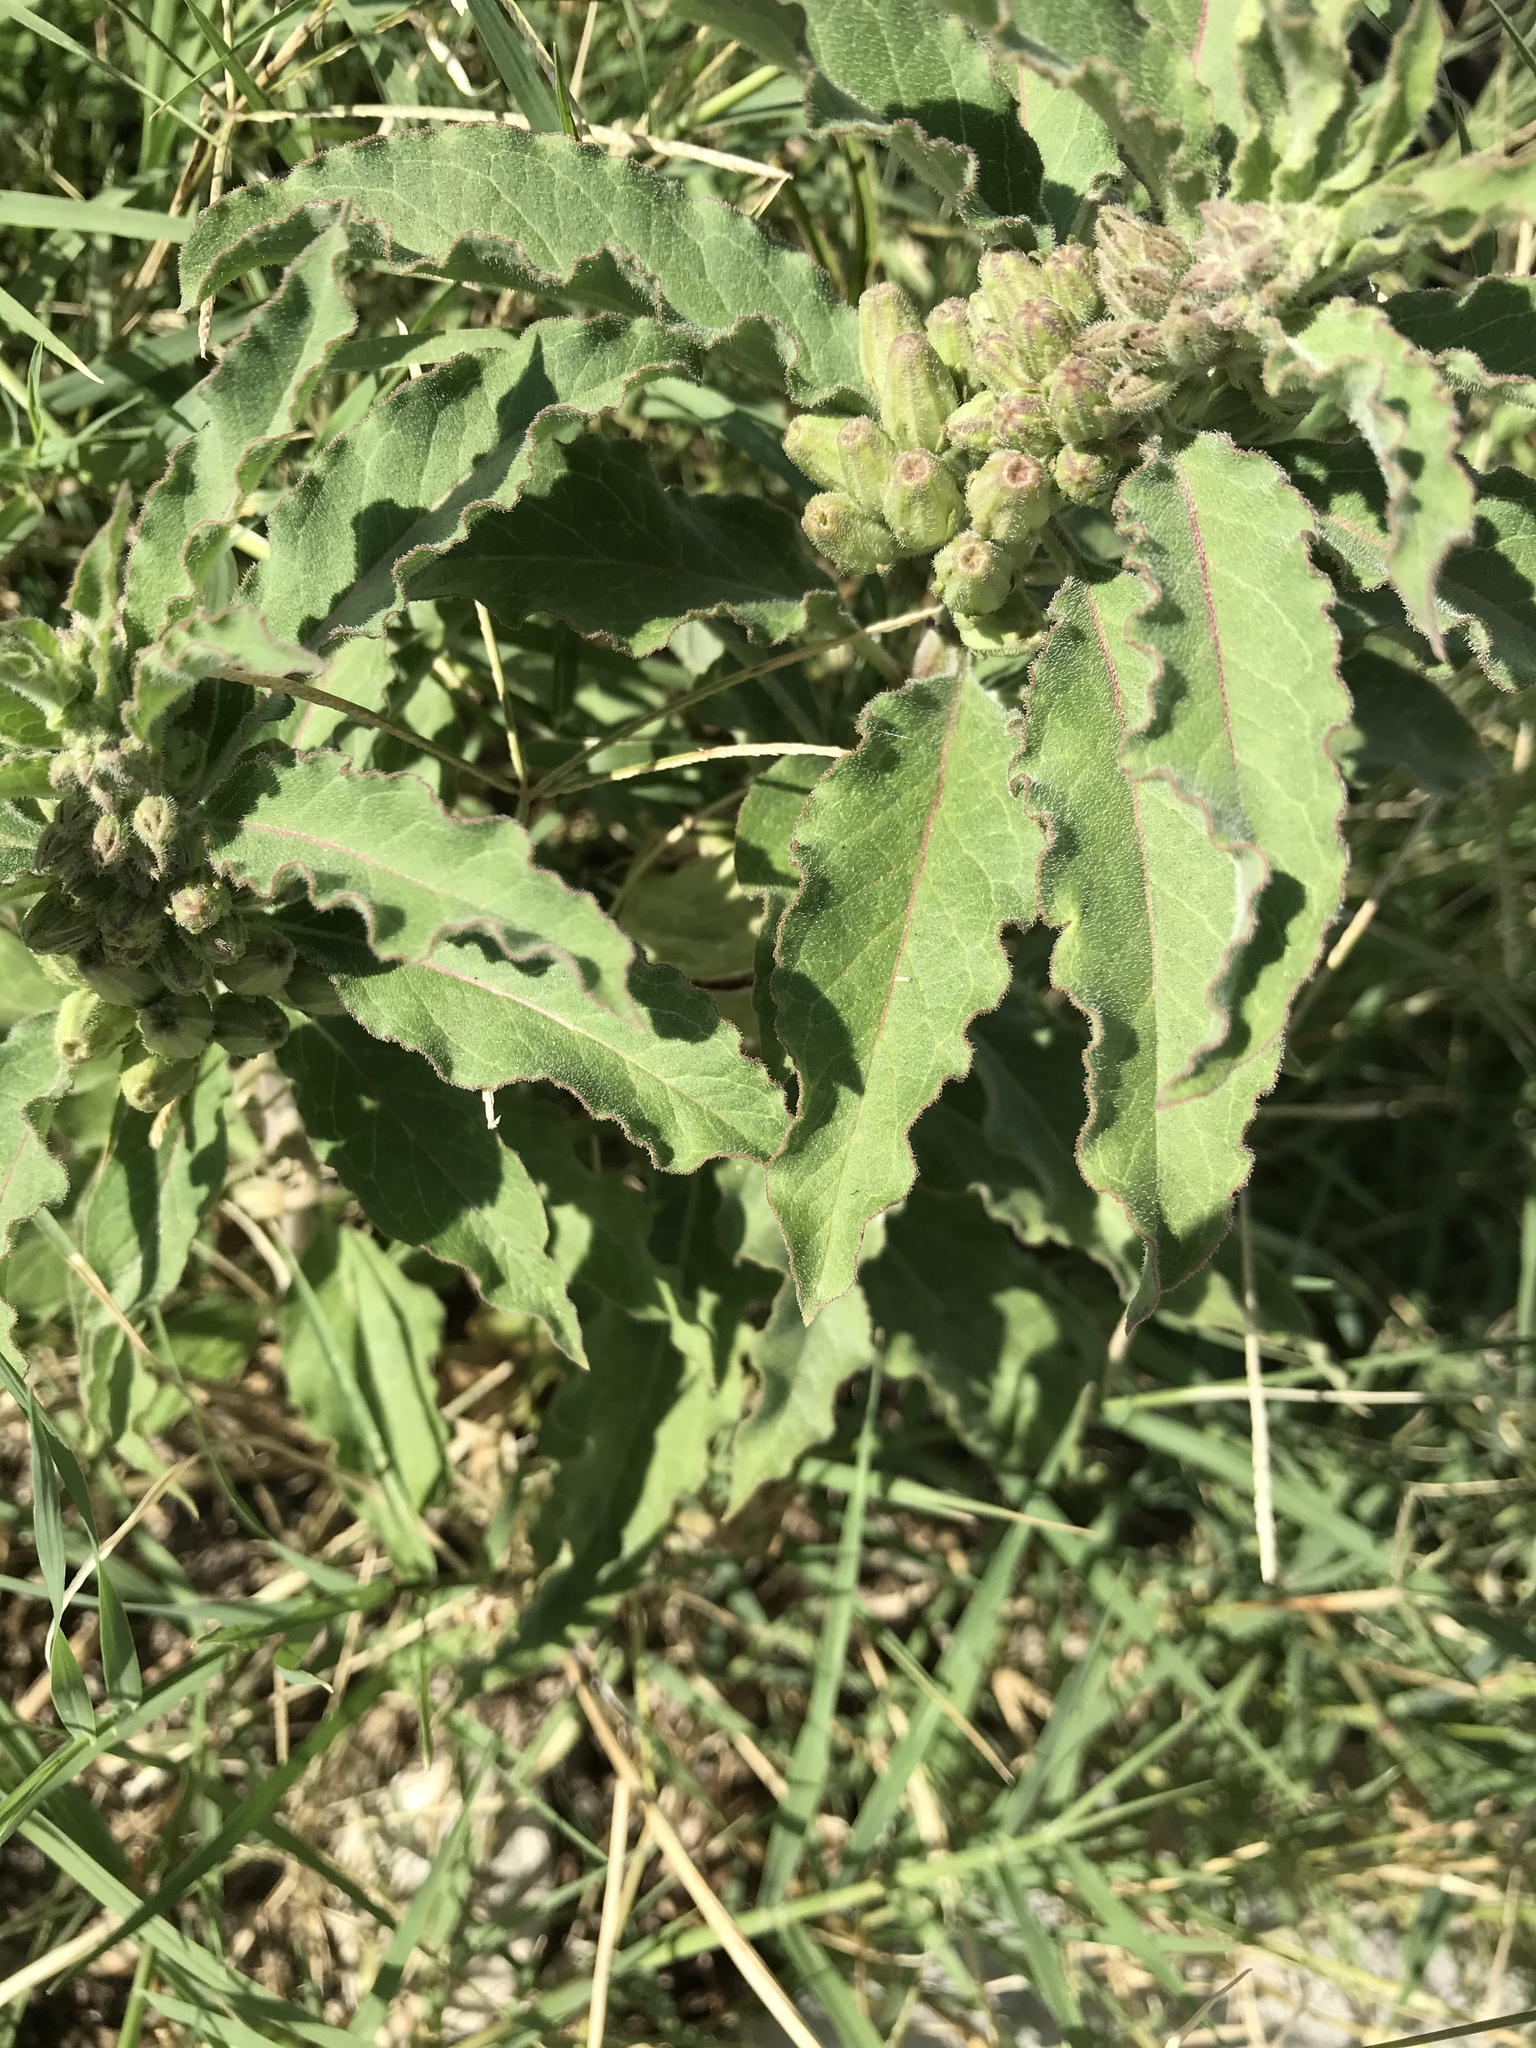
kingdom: Plantae
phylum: Tracheophyta
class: Magnoliopsida
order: Gentianales
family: Apocynaceae
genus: Asclepias
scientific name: Asclepias oenotheroides
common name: Zizotes milkweed
